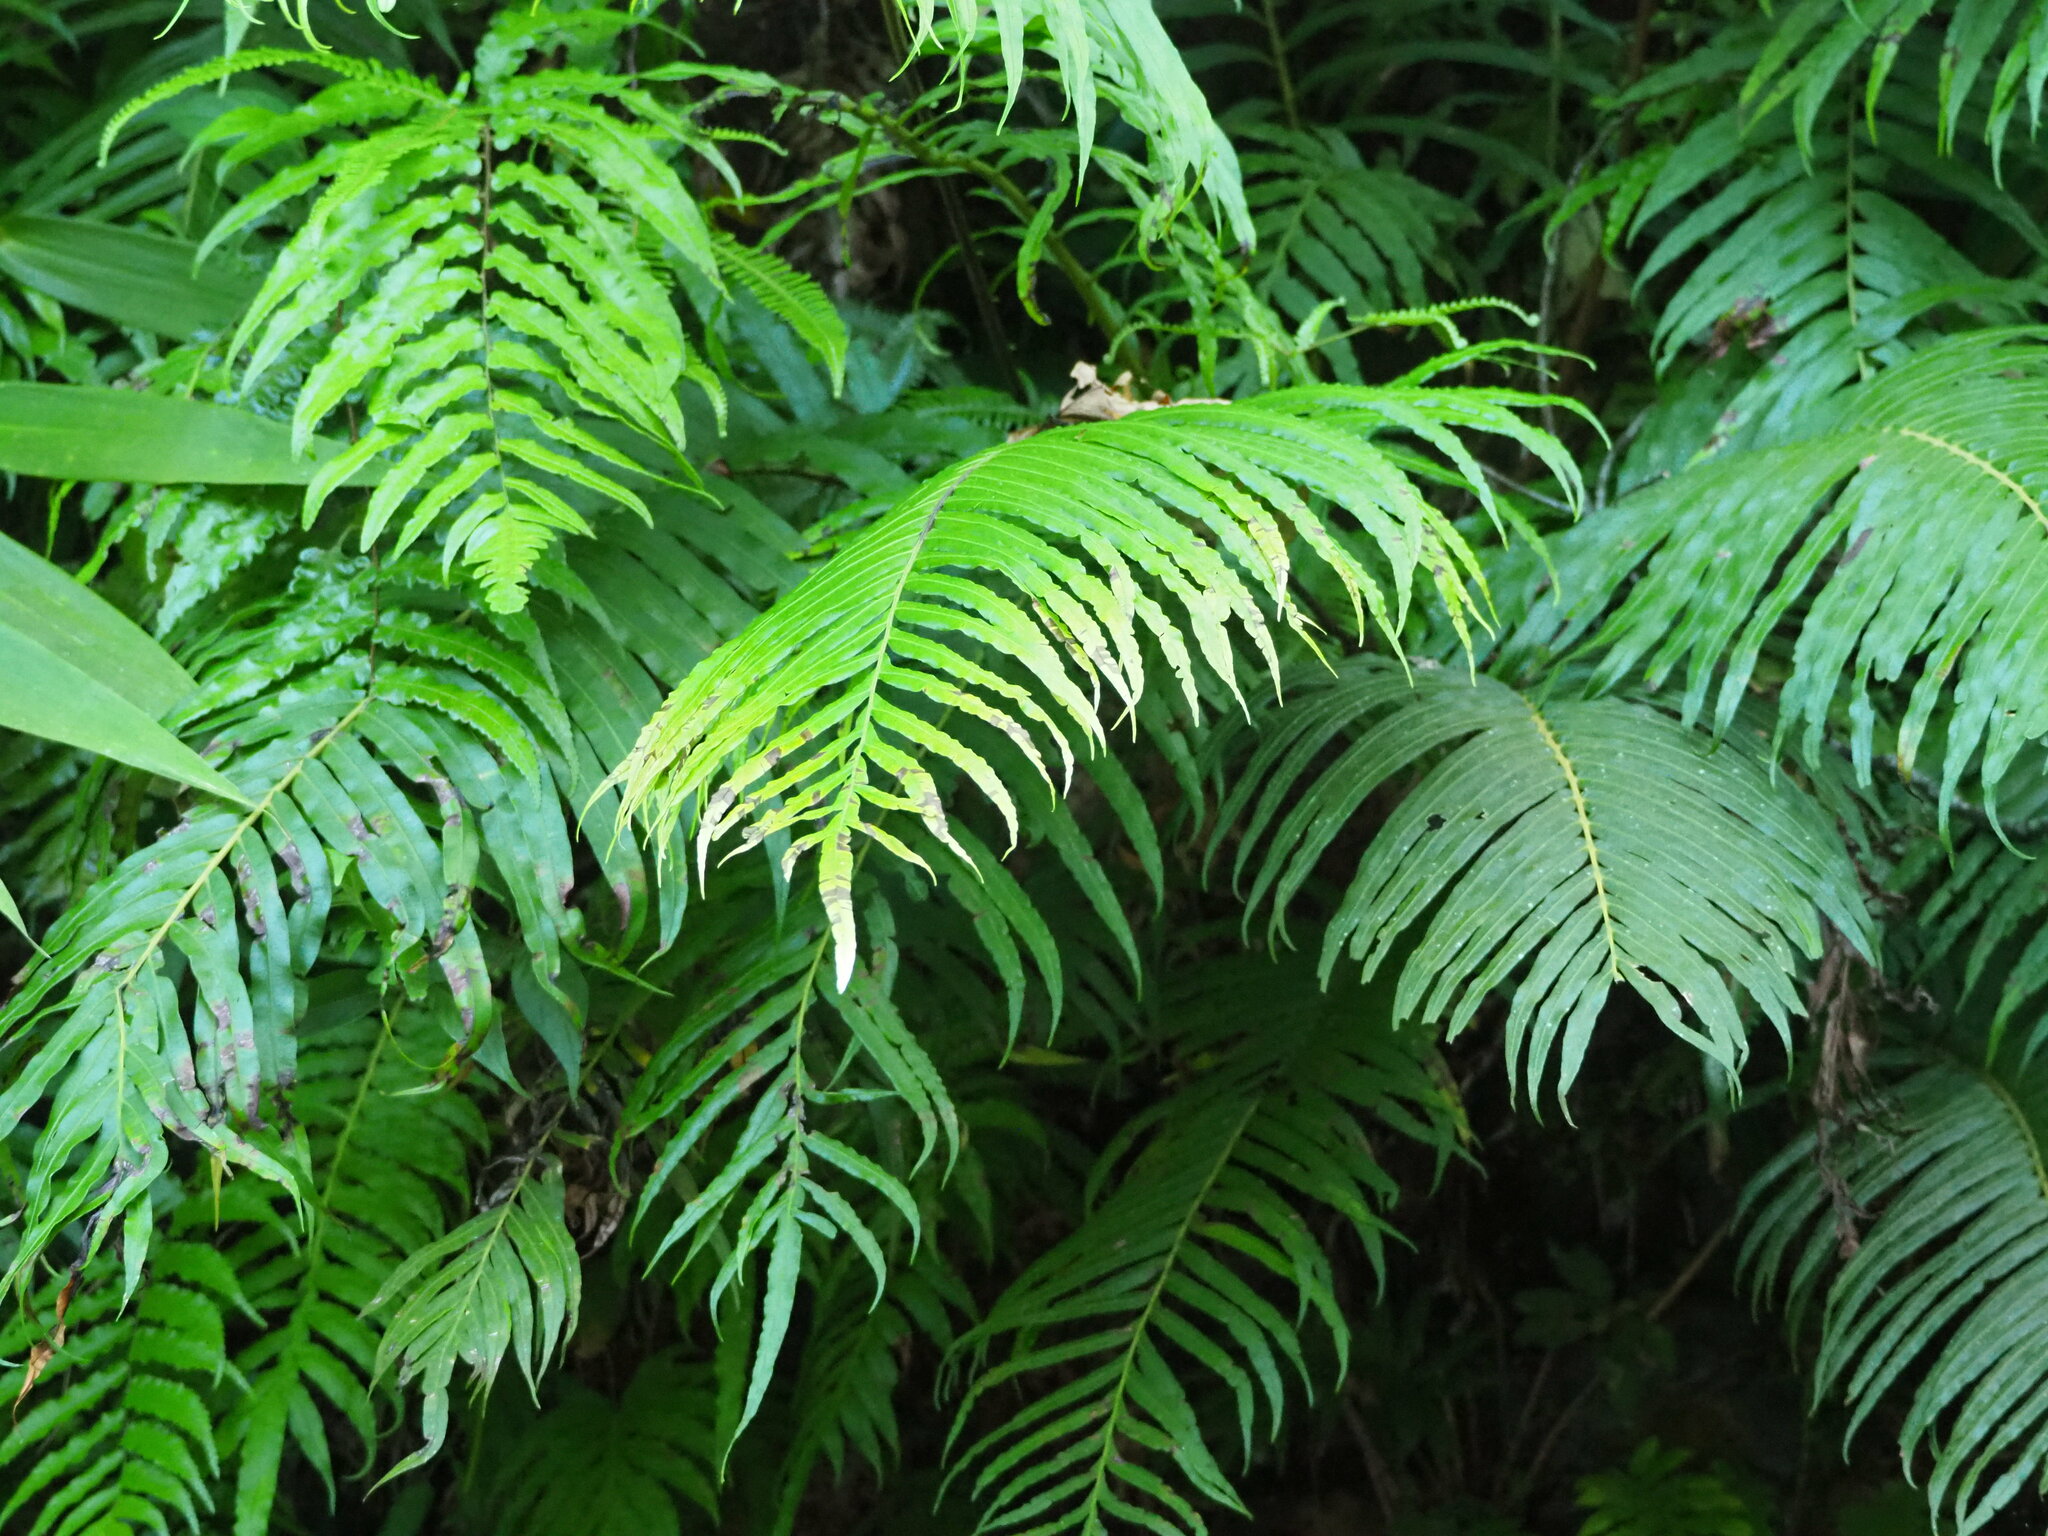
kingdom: Plantae
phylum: Tracheophyta
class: Polypodiopsida
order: Polypodiales
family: Blechnaceae
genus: Blechnopsis
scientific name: Blechnopsis orientalis
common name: Oriental blechnum
